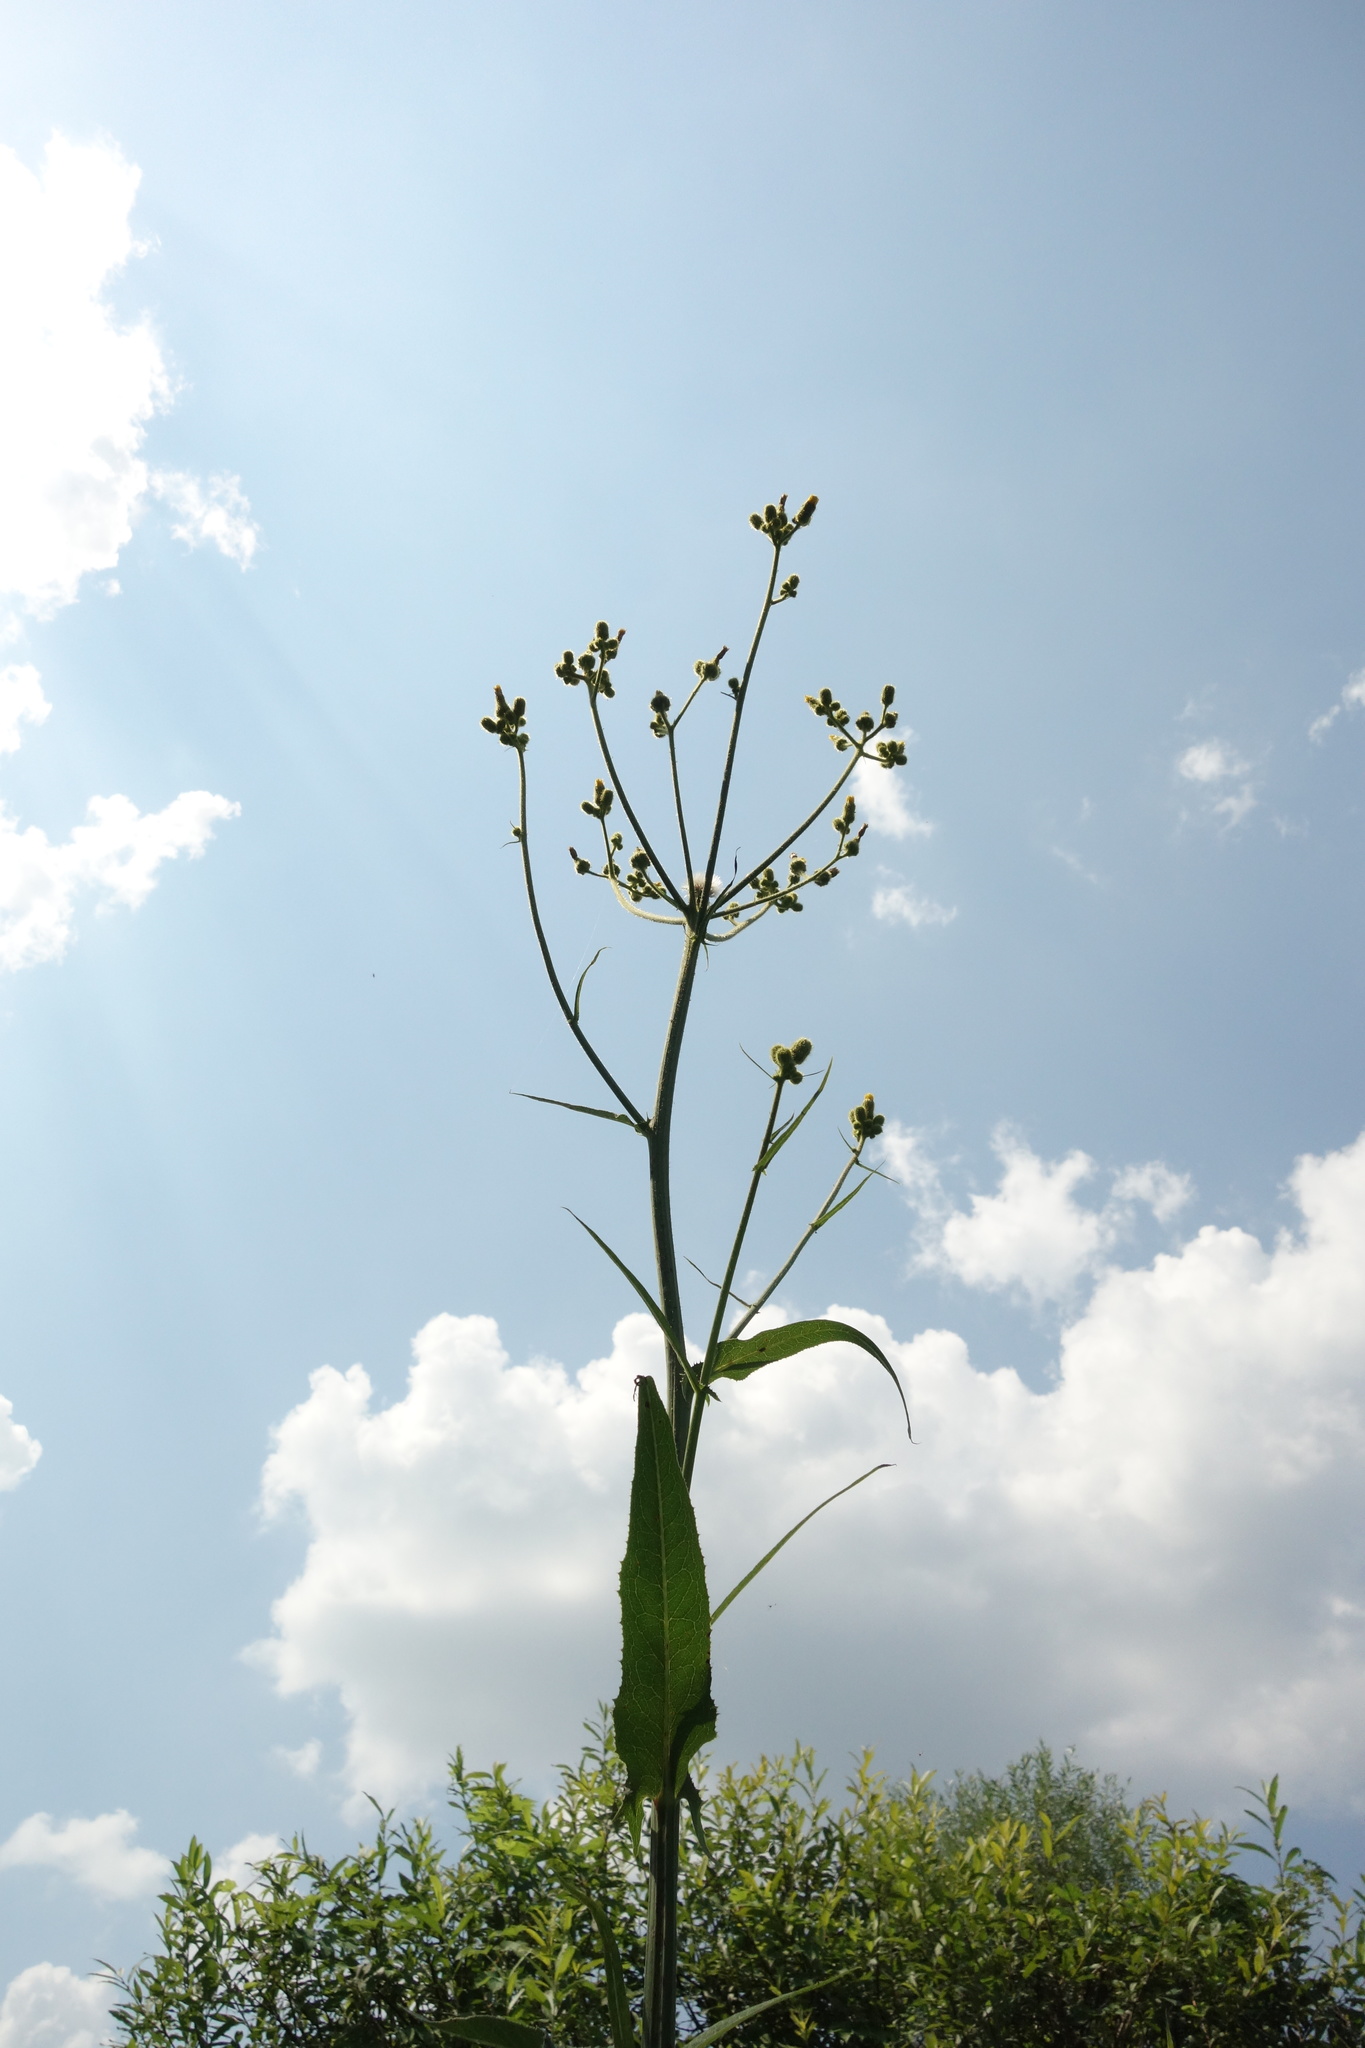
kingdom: Plantae
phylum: Tracheophyta
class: Magnoliopsida
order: Asterales
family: Asteraceae
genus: Sonchus
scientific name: Sonchus palustris
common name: Marsh sow-thistle
